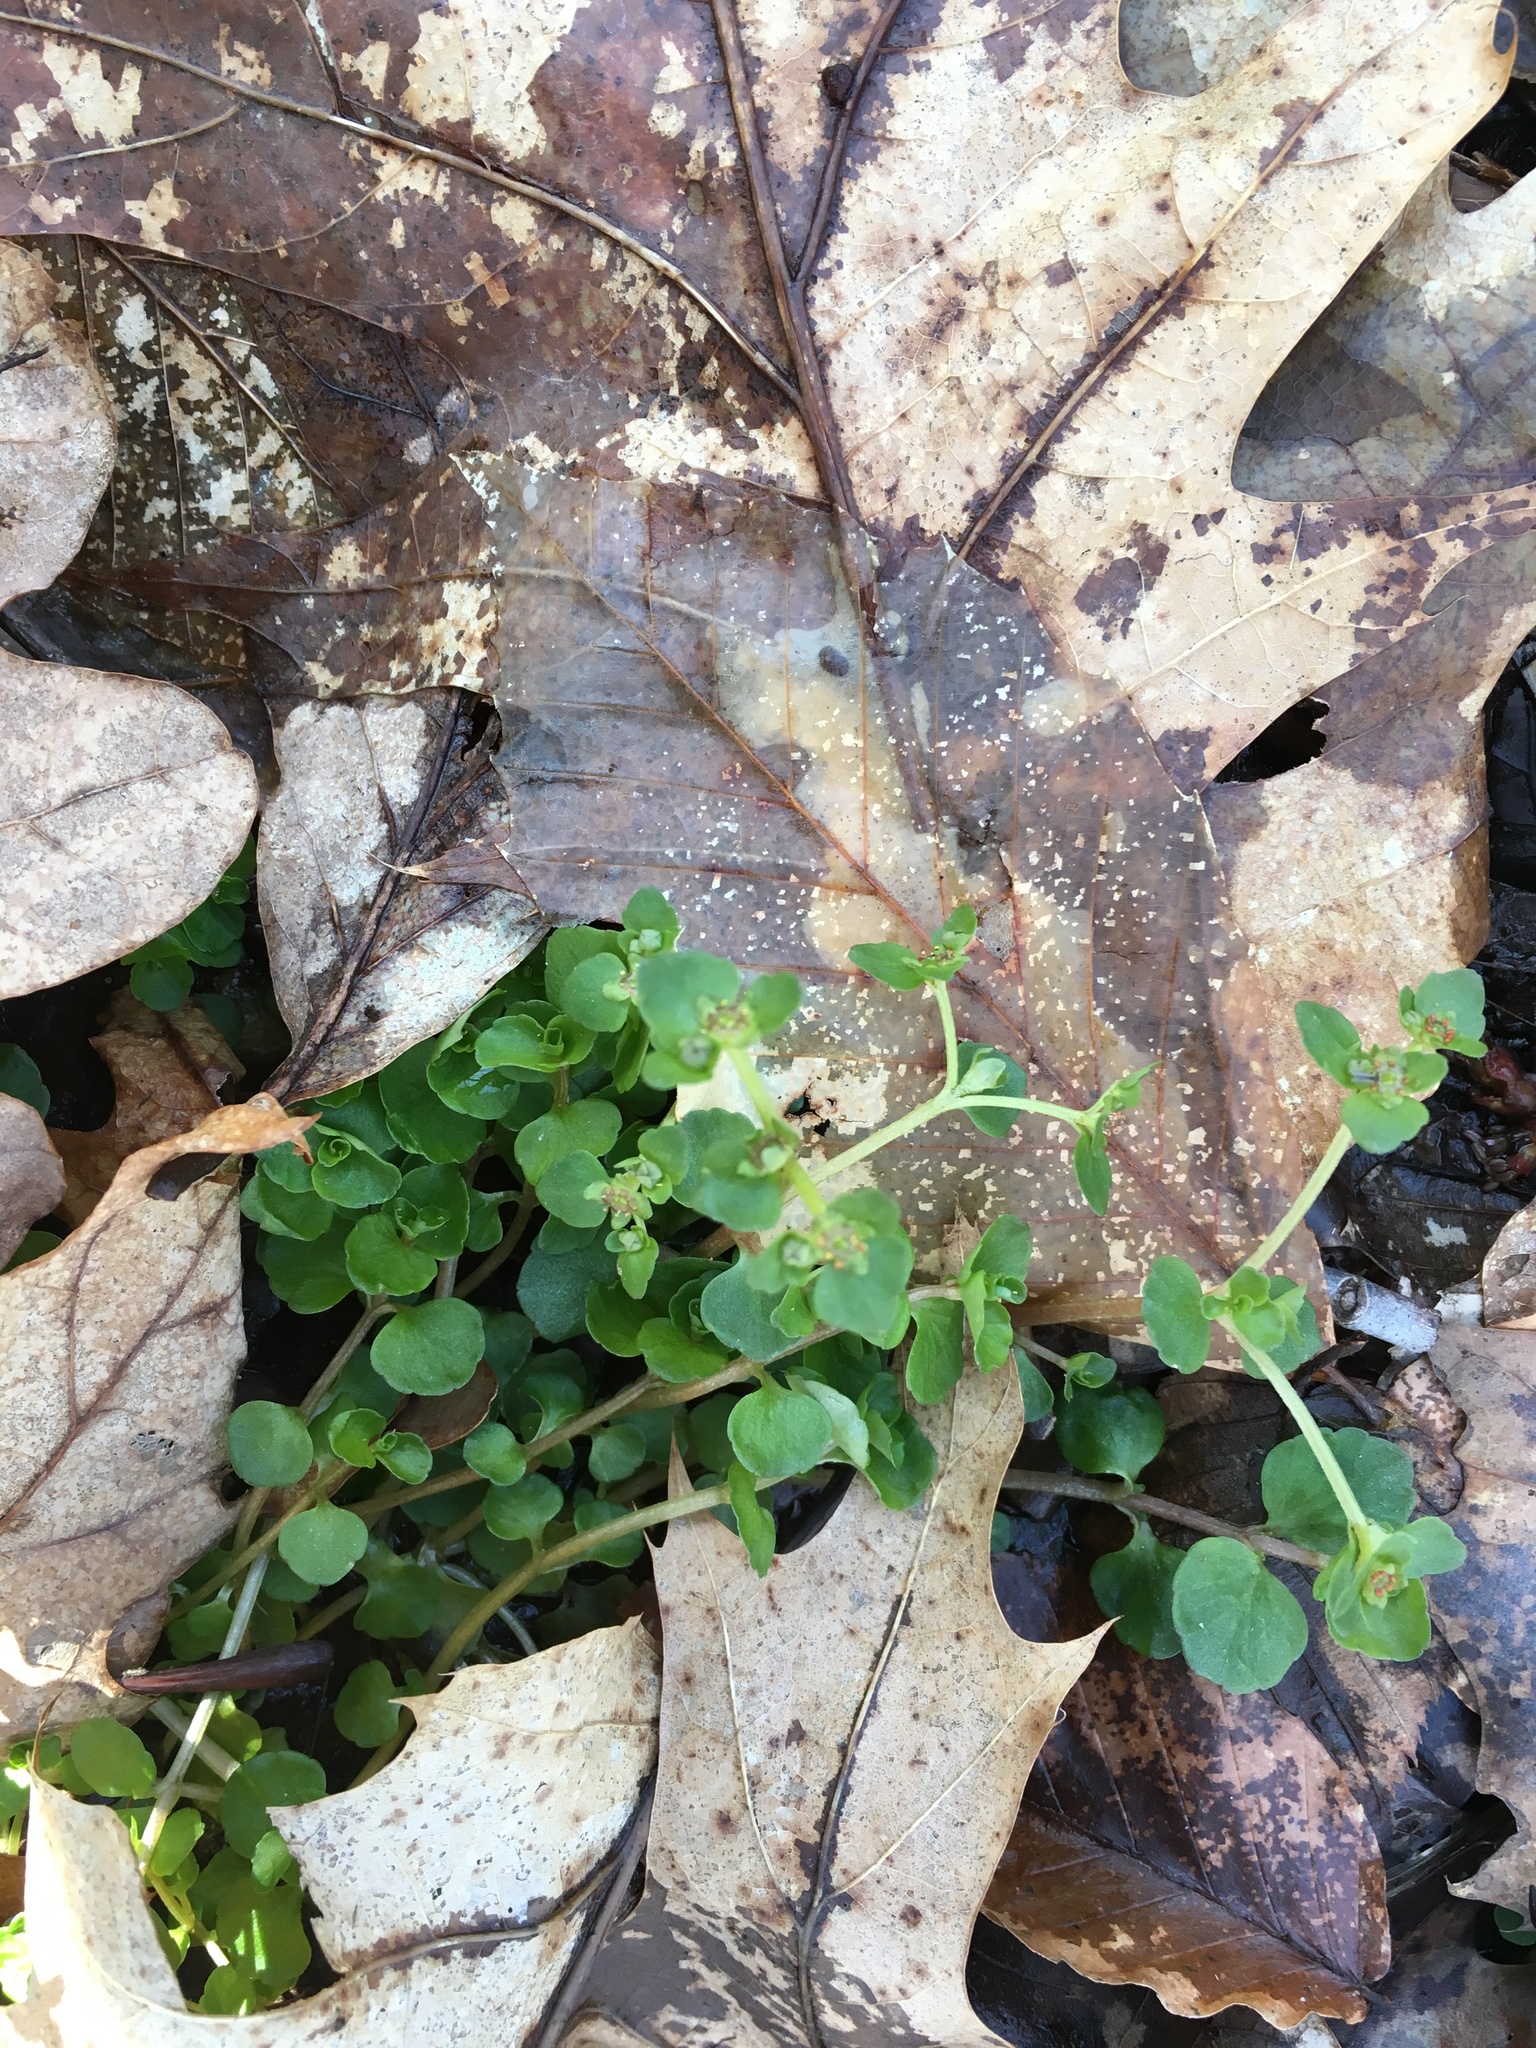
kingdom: Plantae
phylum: Tracheophyta
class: Magnoliopsida
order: Saxifragales
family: Saxifragaceae
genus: Chrysosplenium
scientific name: Chrysosplenium americanum
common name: American golden-saxifrage
